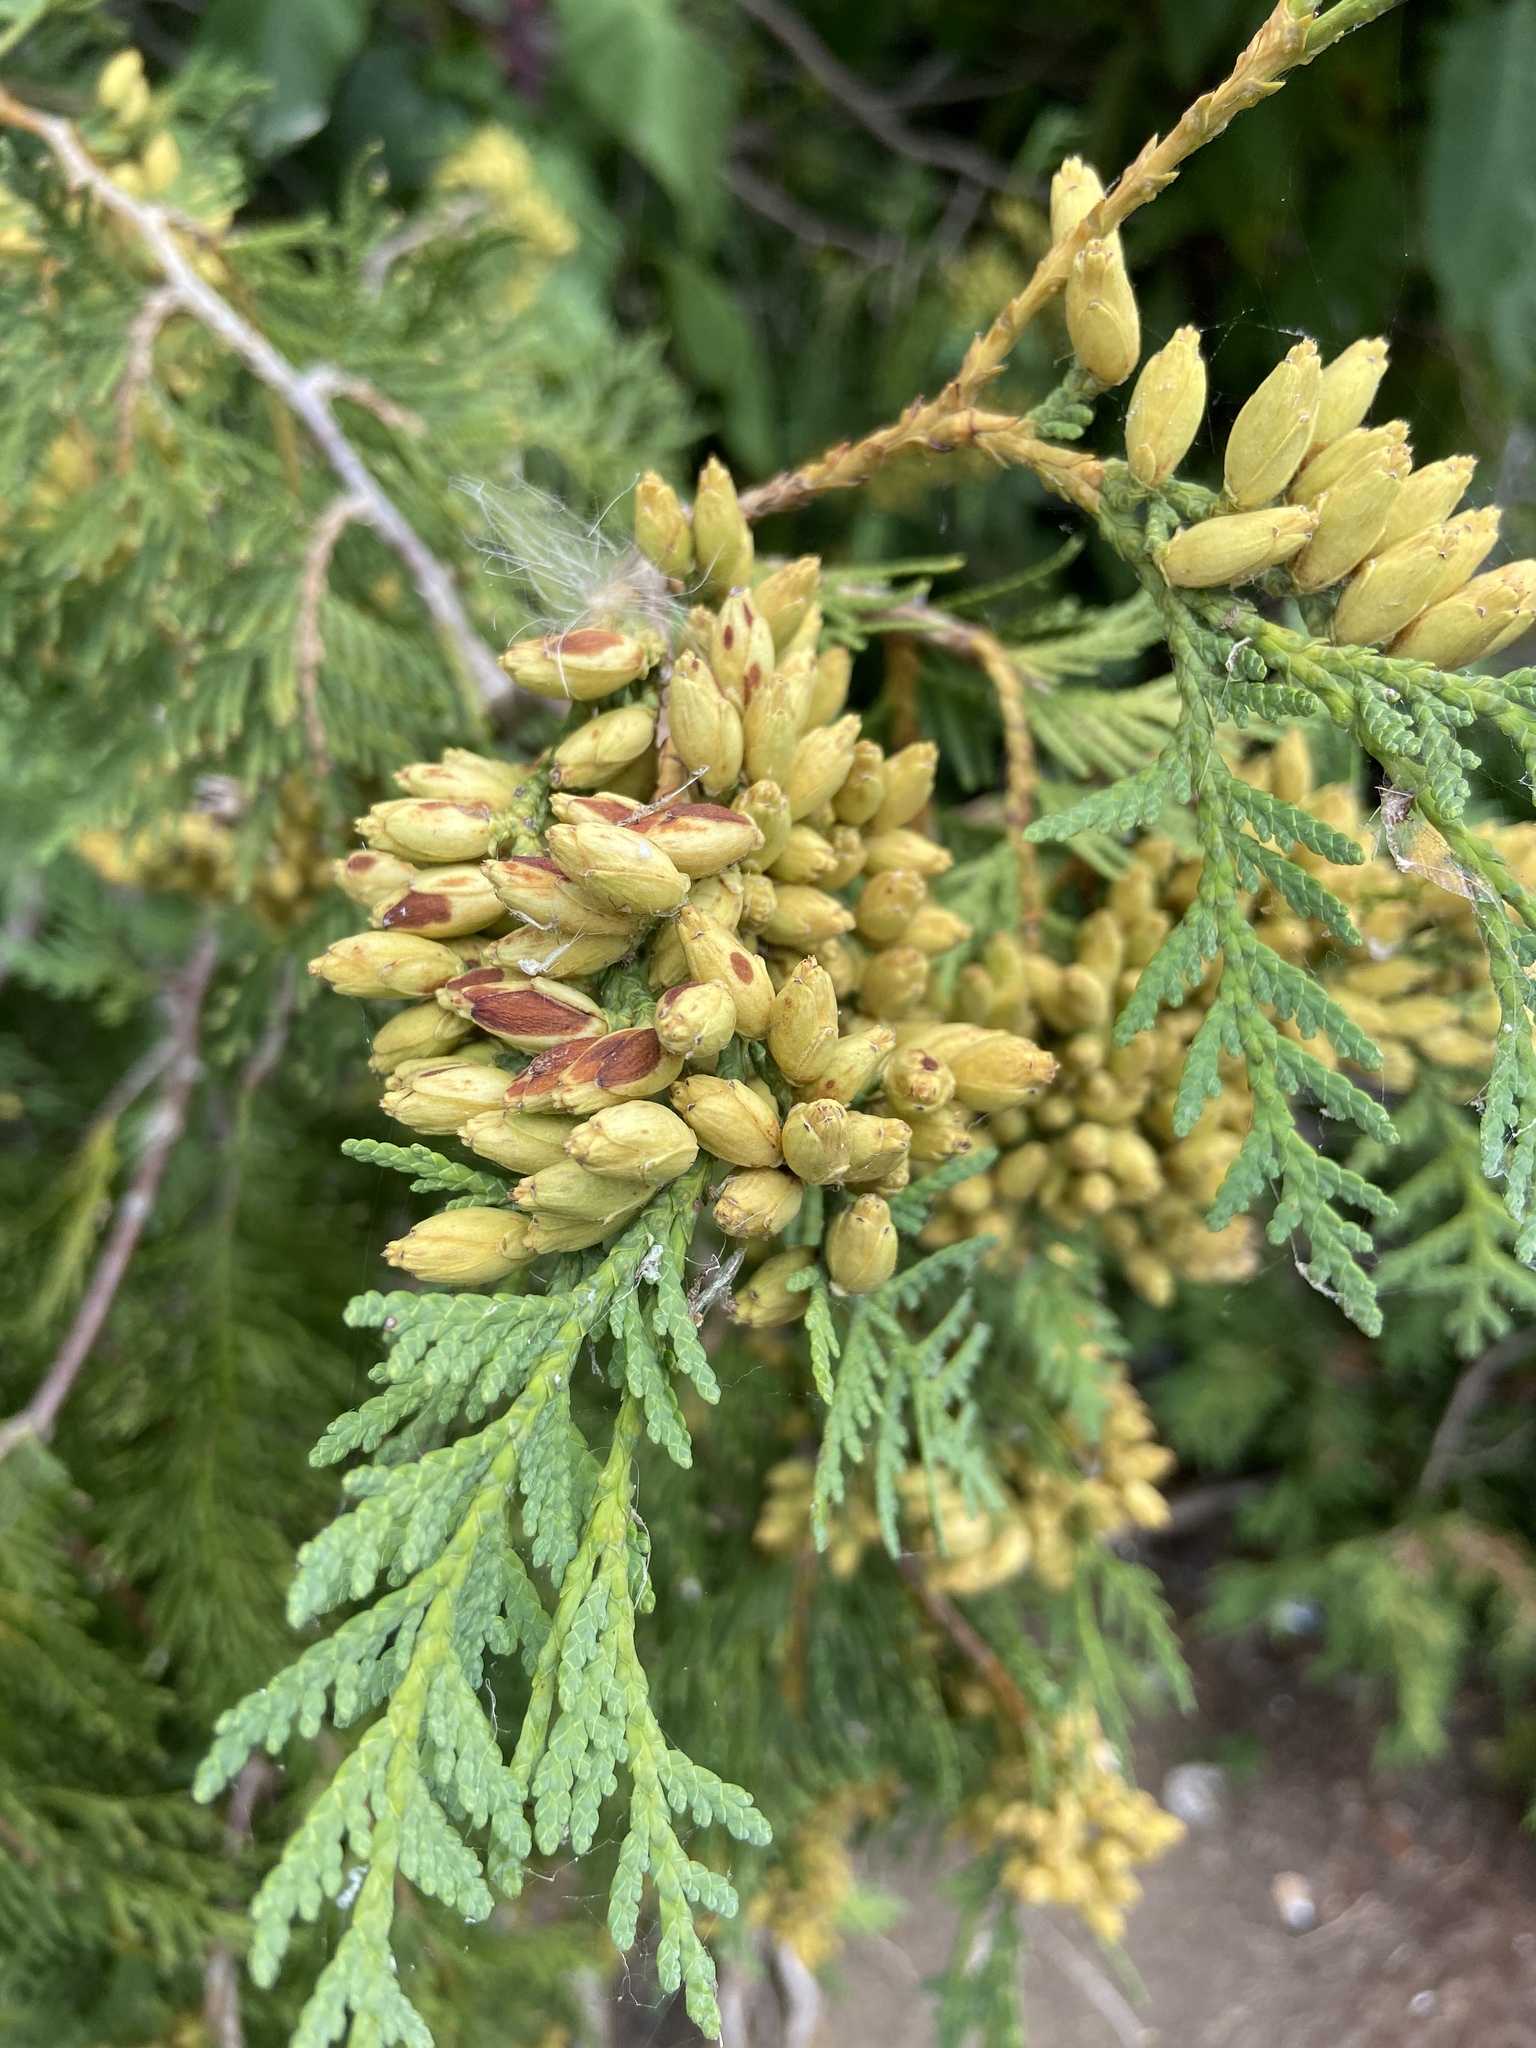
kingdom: Plantae
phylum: Tracheophyta
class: Pinopsida
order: Pinales
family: Cupressaceae
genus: Thuja
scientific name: Thuja occidentalis
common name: Northern white-cedar
